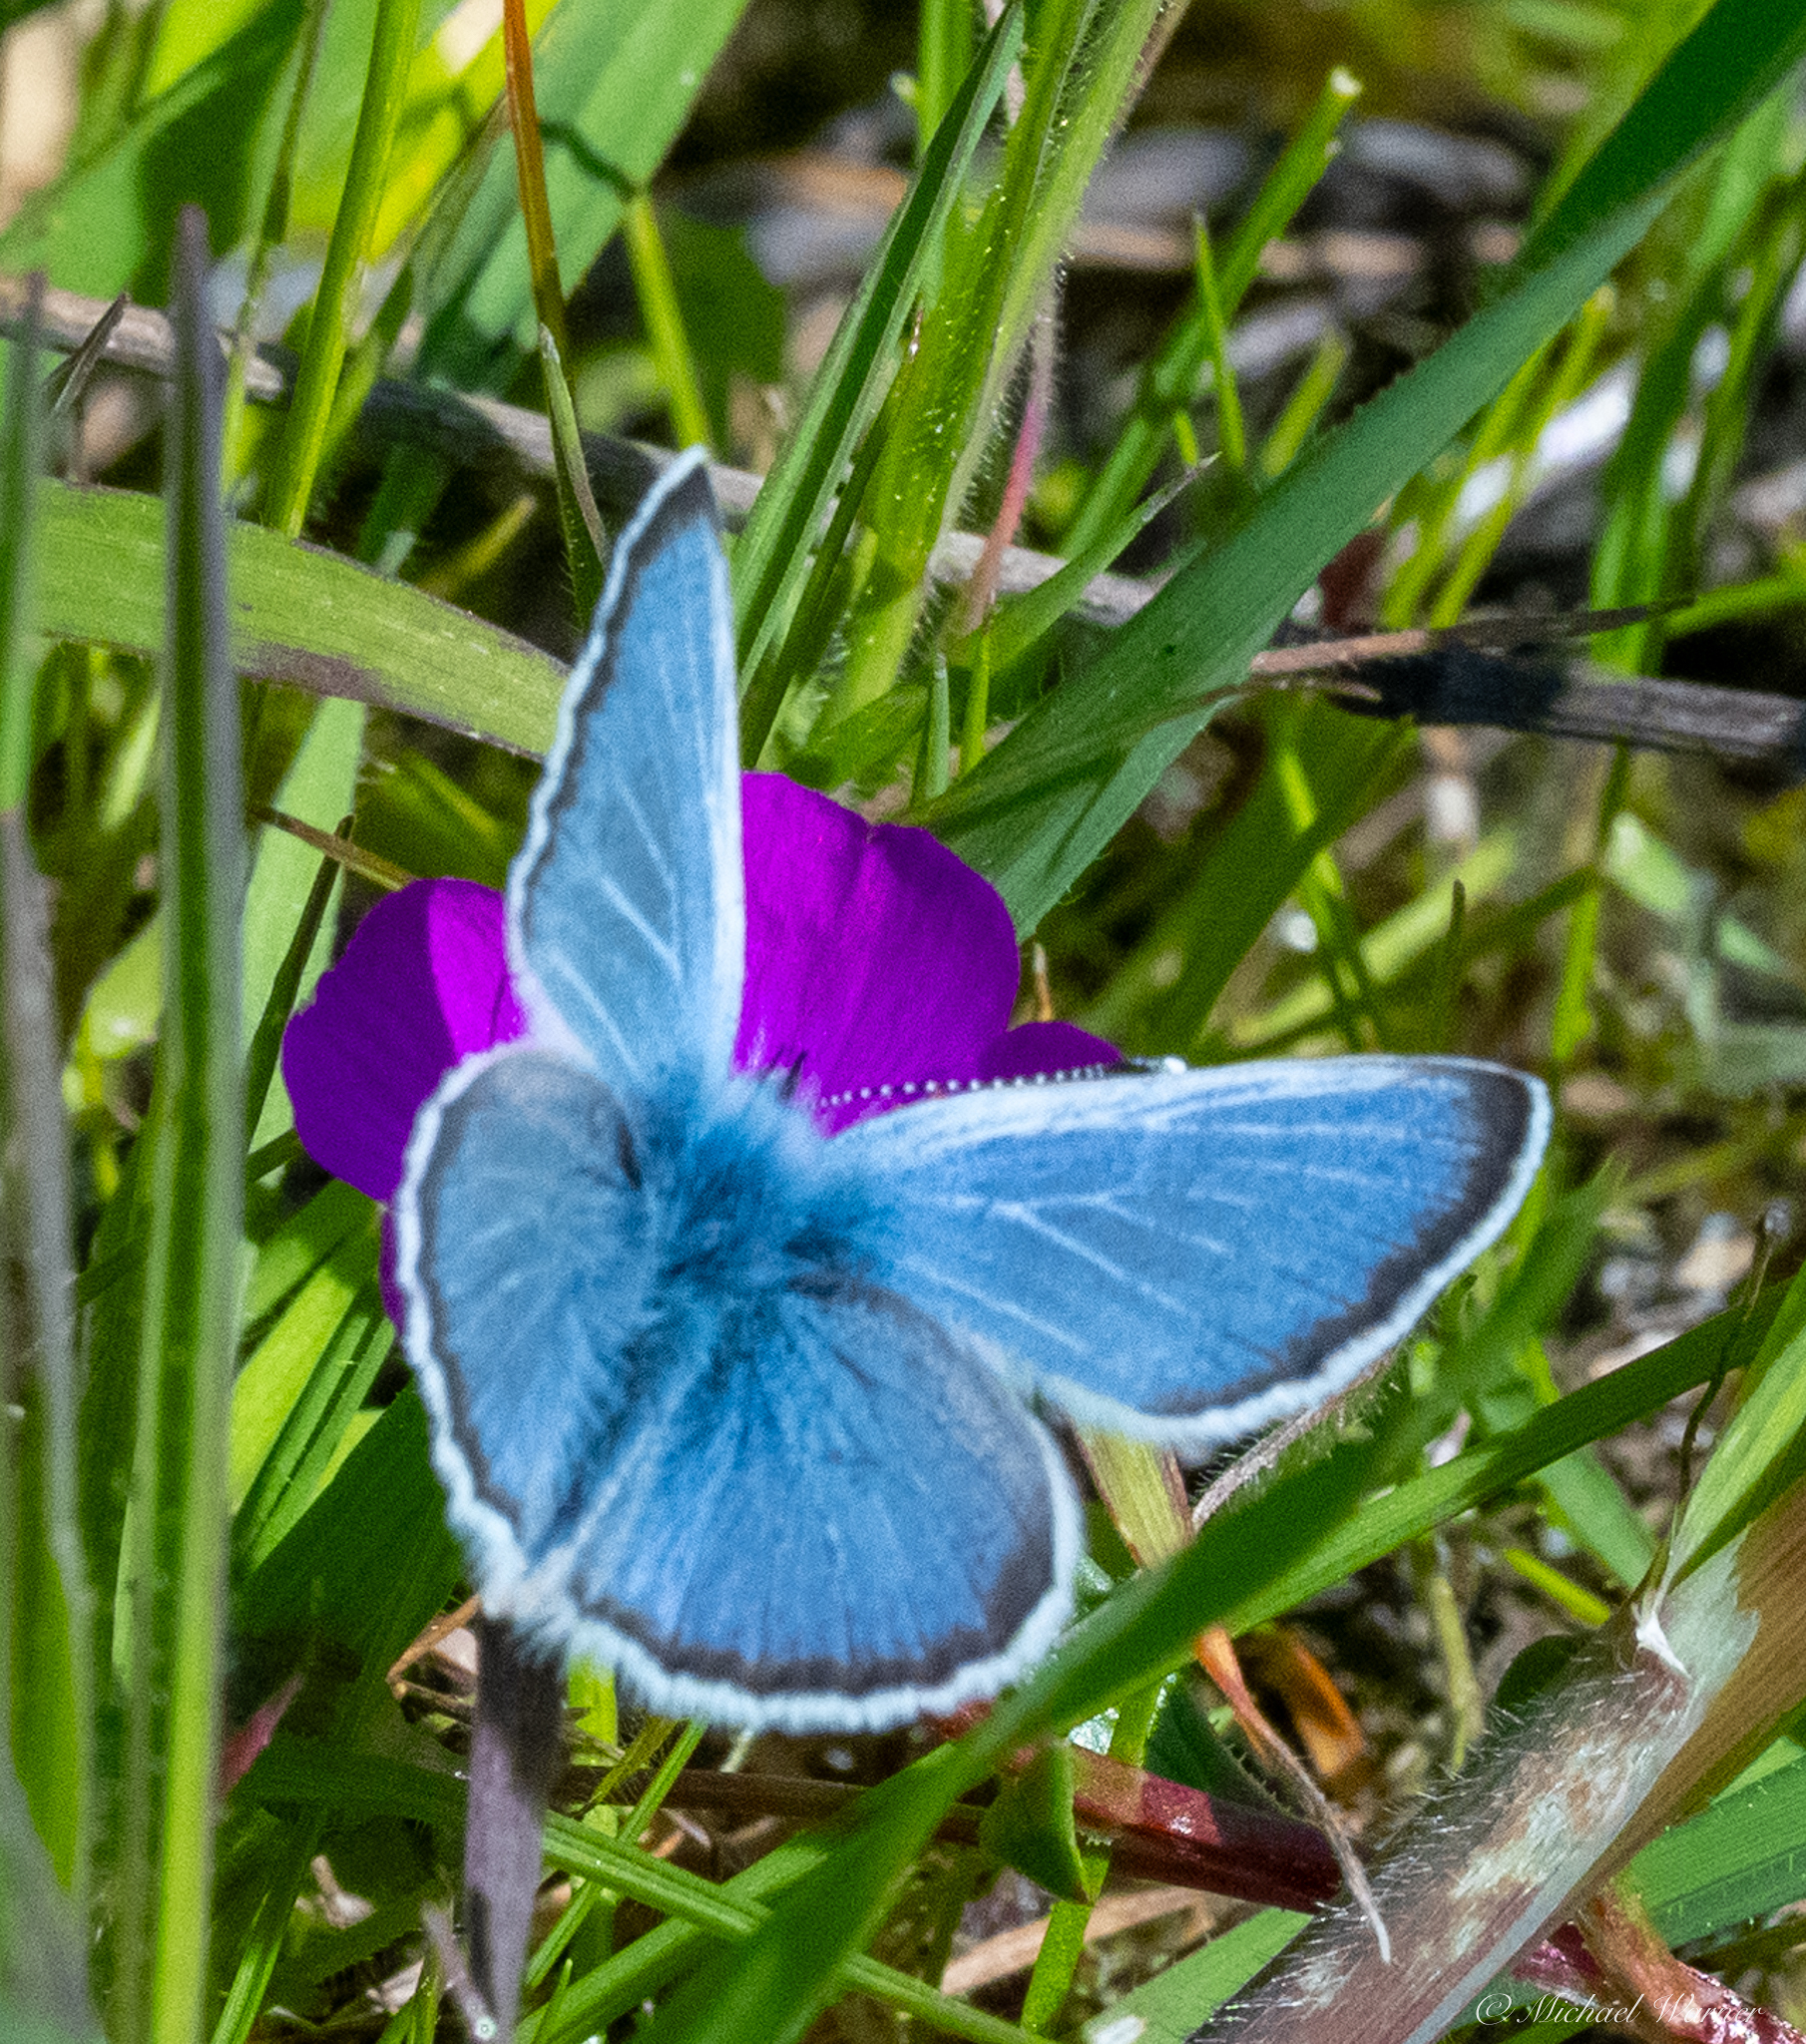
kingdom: Animalia
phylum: Arthropoda
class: Insecta
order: Lepidoptera
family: Lycaenidae
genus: Glaucopsyche
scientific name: Glaucopsyche lygdamus
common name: Silvery blue
